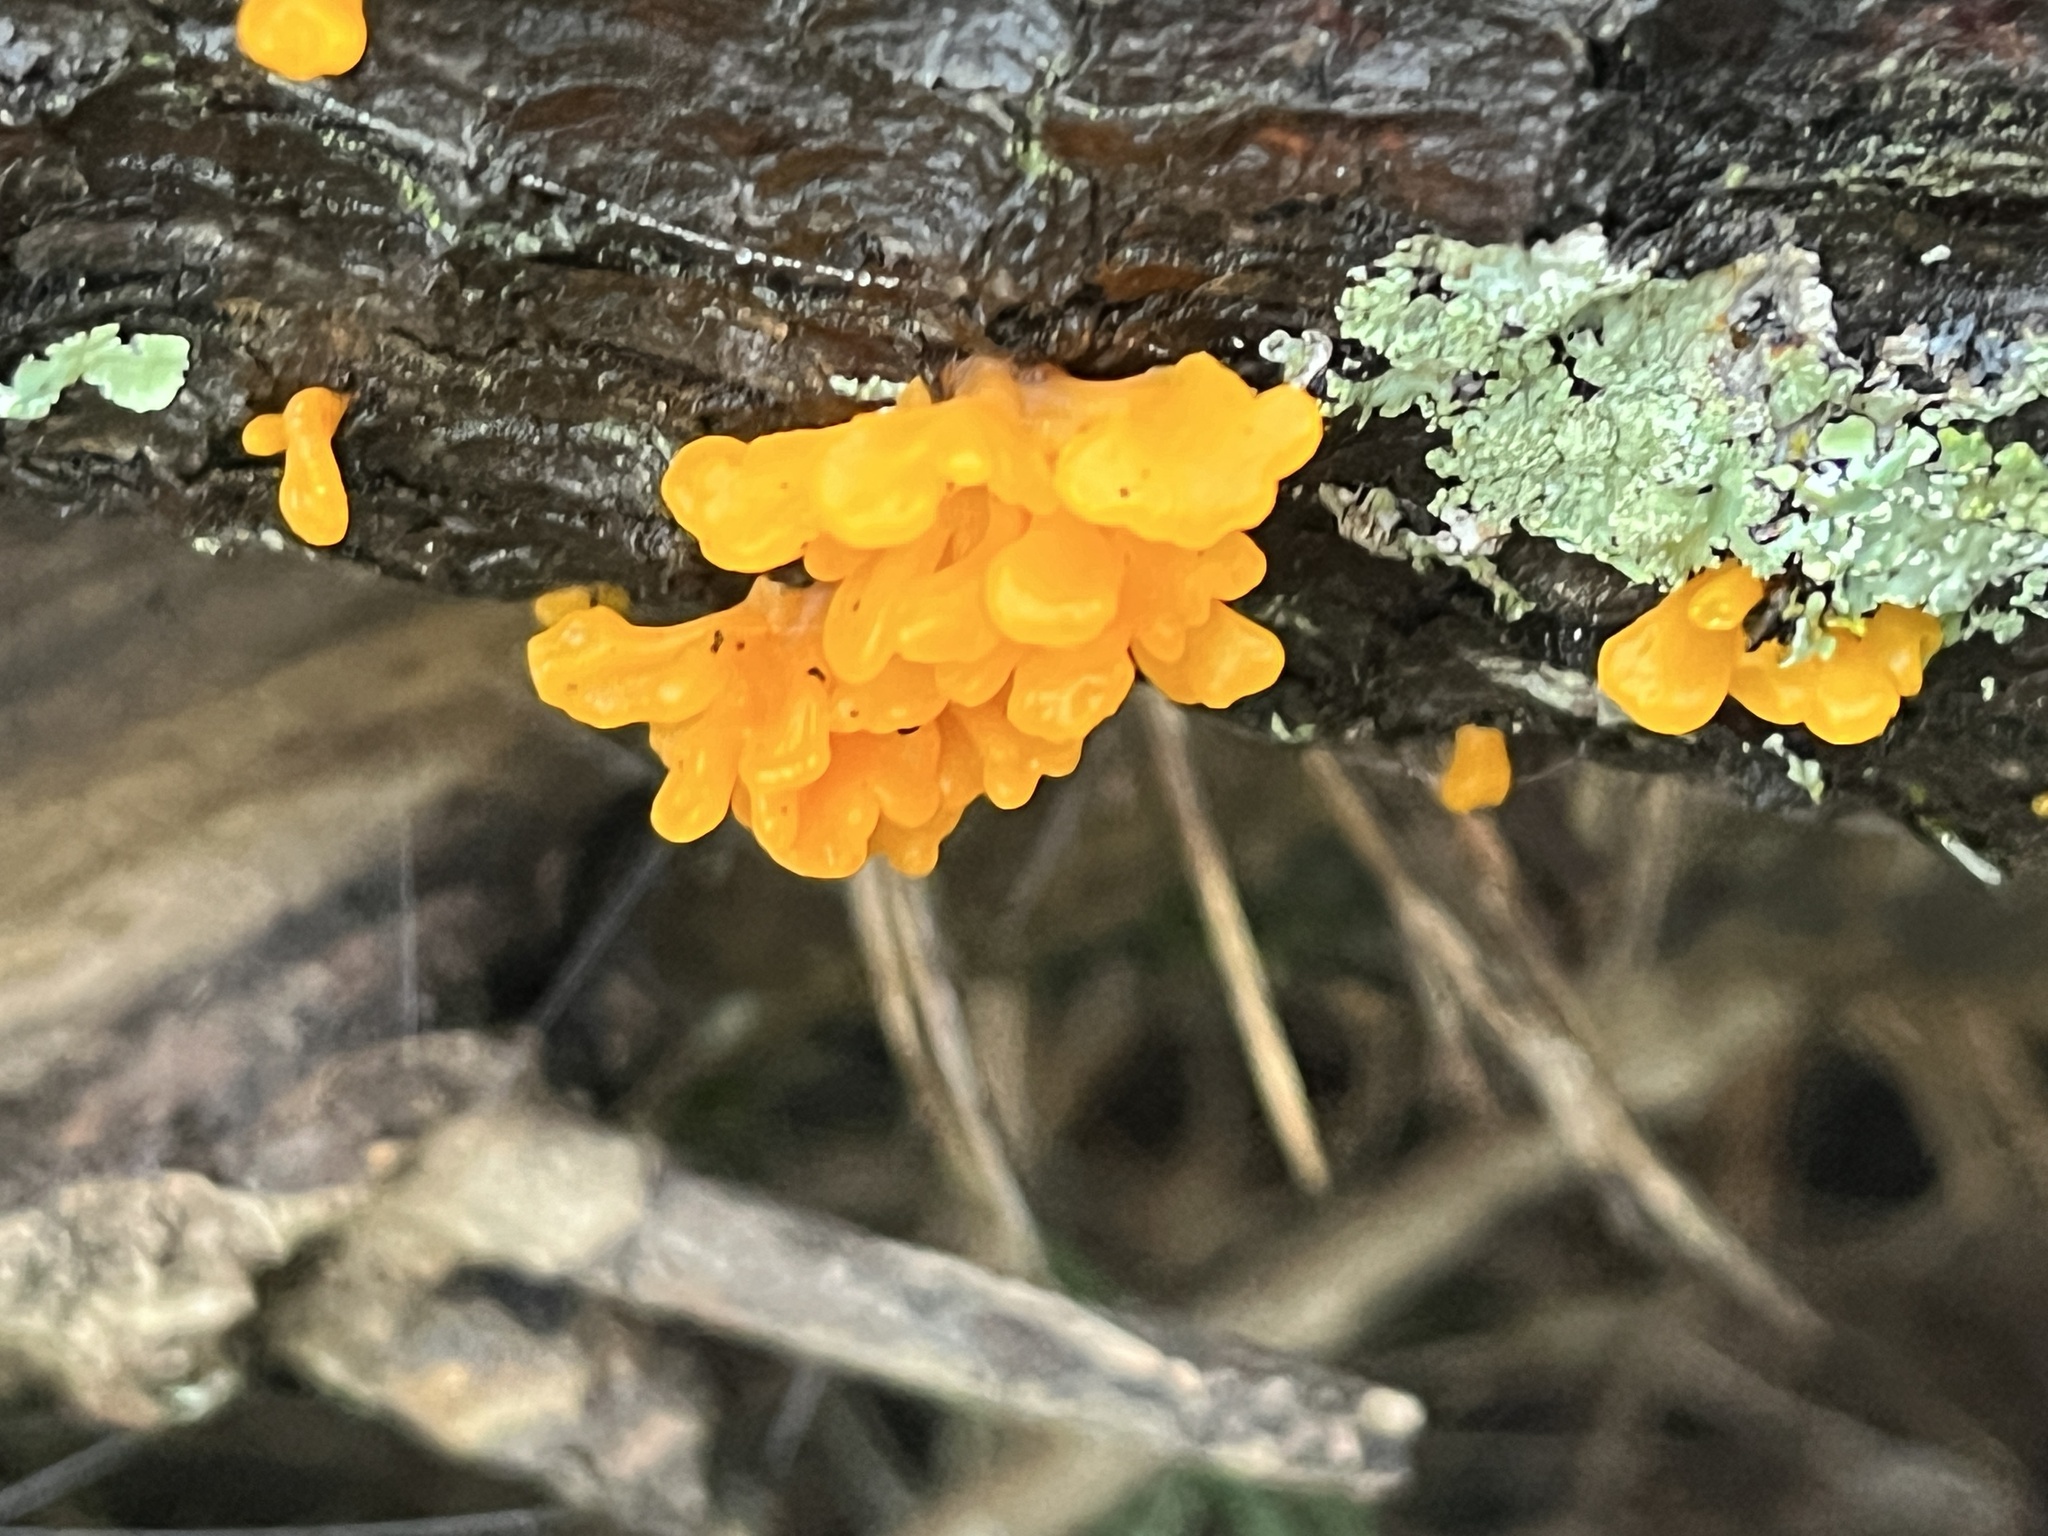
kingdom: Fungi
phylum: Basidiomycota
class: Dacrymycetes
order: Dacrymycetales
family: Dacrymycetaceae
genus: Dacrymyces
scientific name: Dacrymyces chrysospermus
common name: Orange jelly spot
